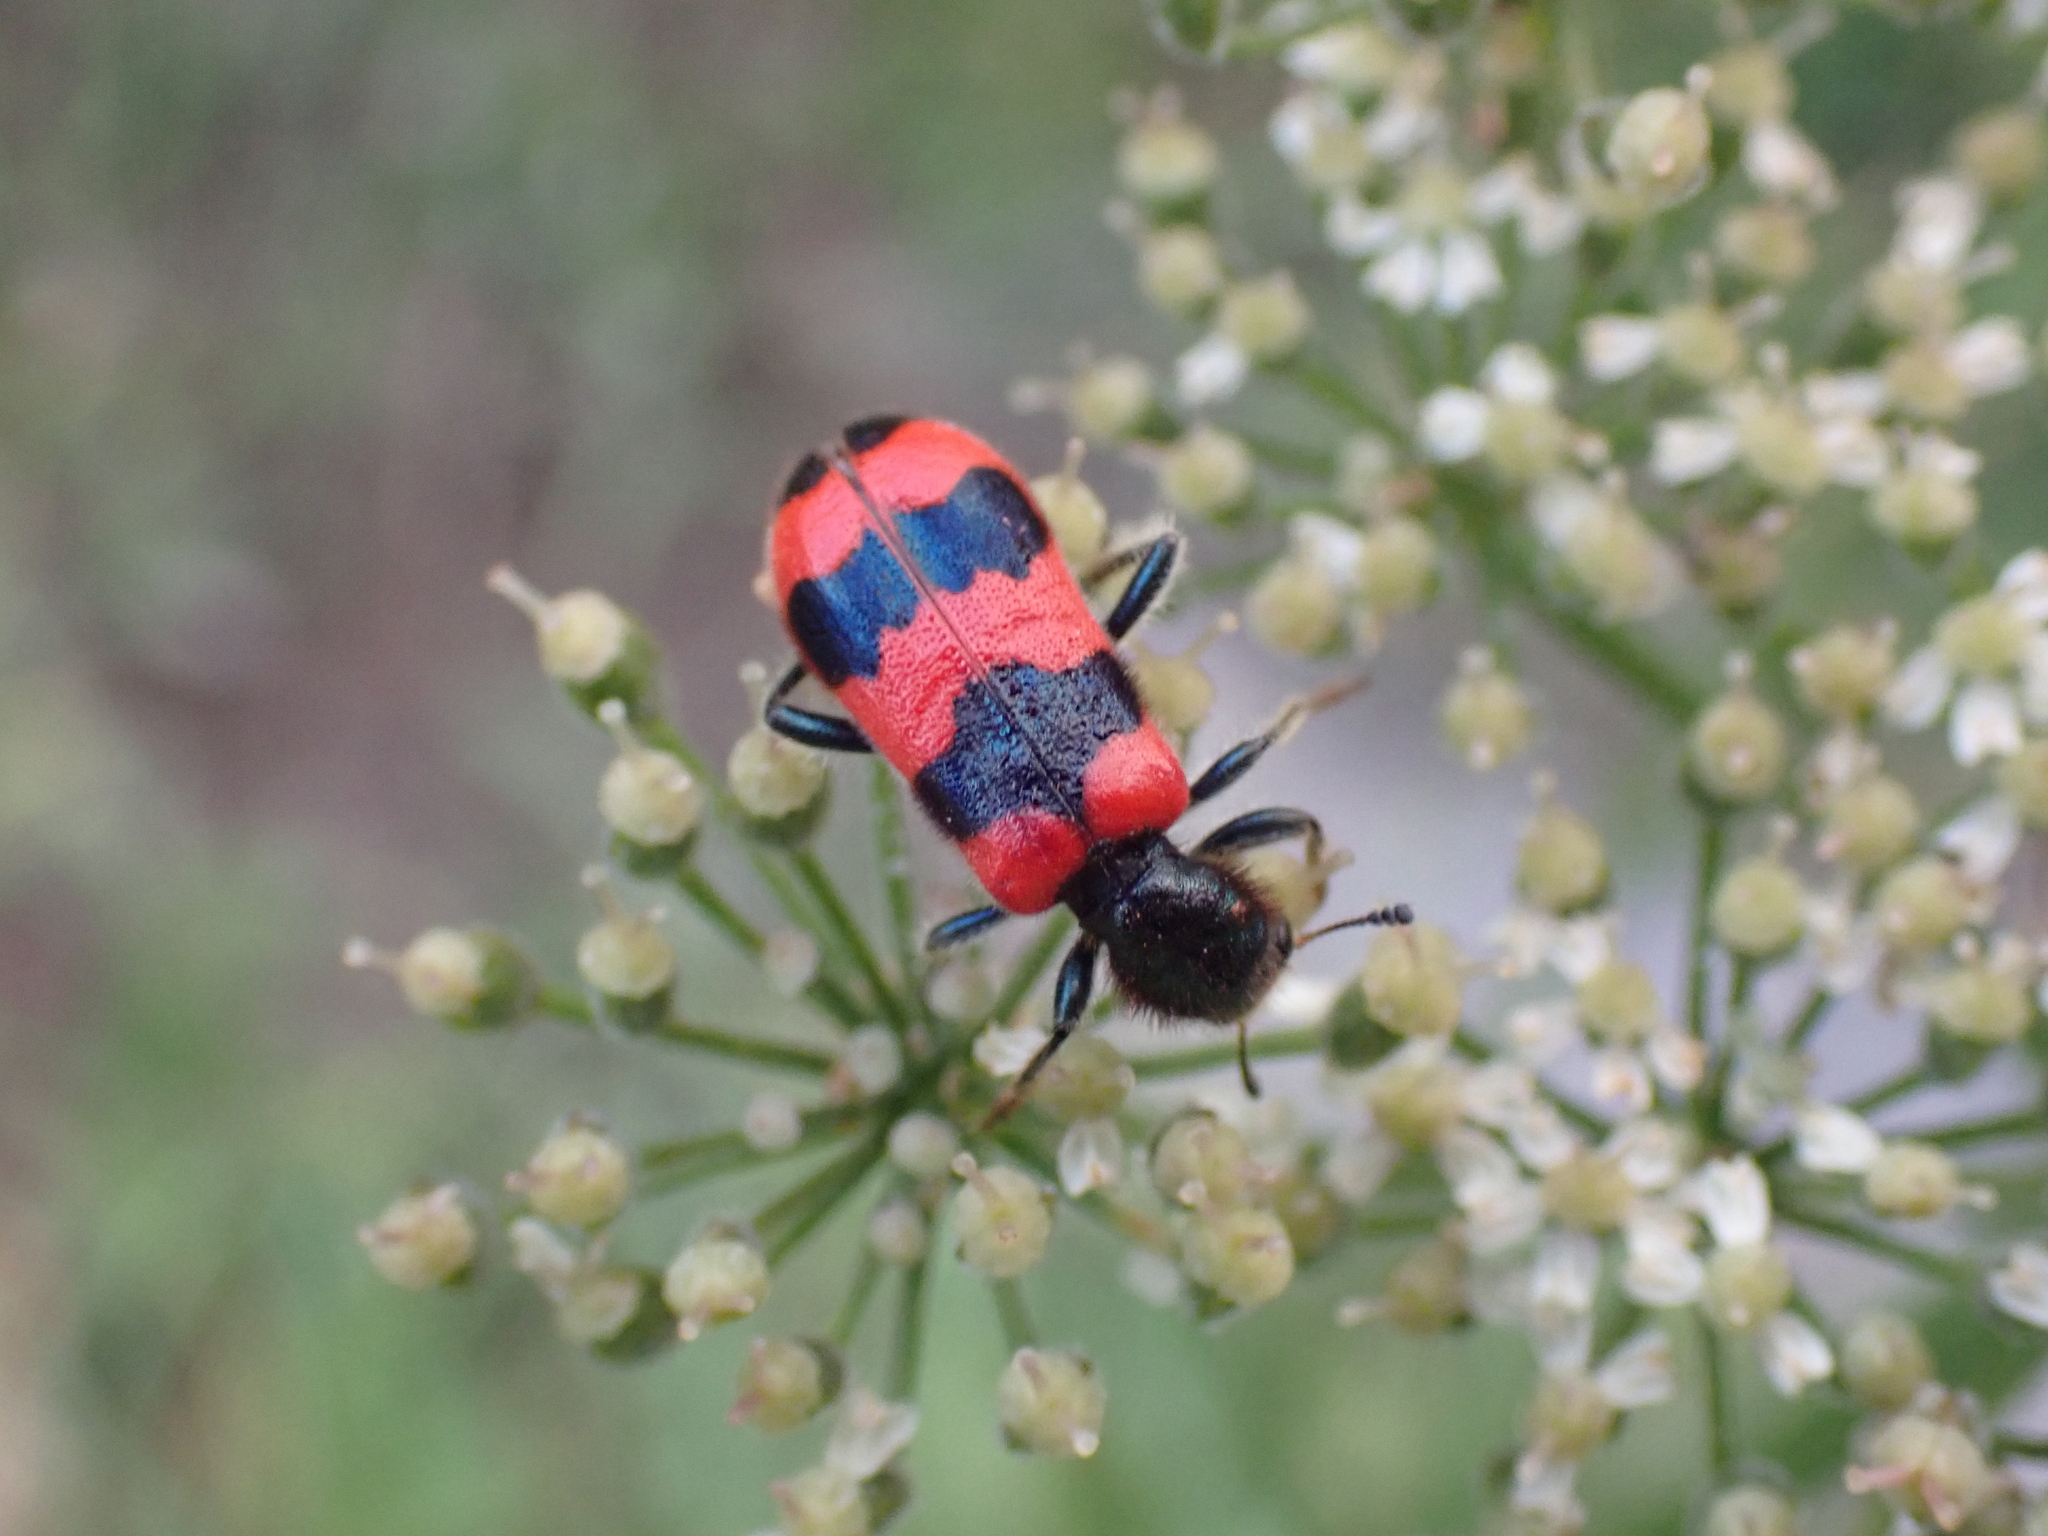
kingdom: Animalia
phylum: Arthropoda
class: Insecta
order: Coleoptera
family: Cleridae
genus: Trichodes
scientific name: Trichodes apiarius
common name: Bee-eating beetle
